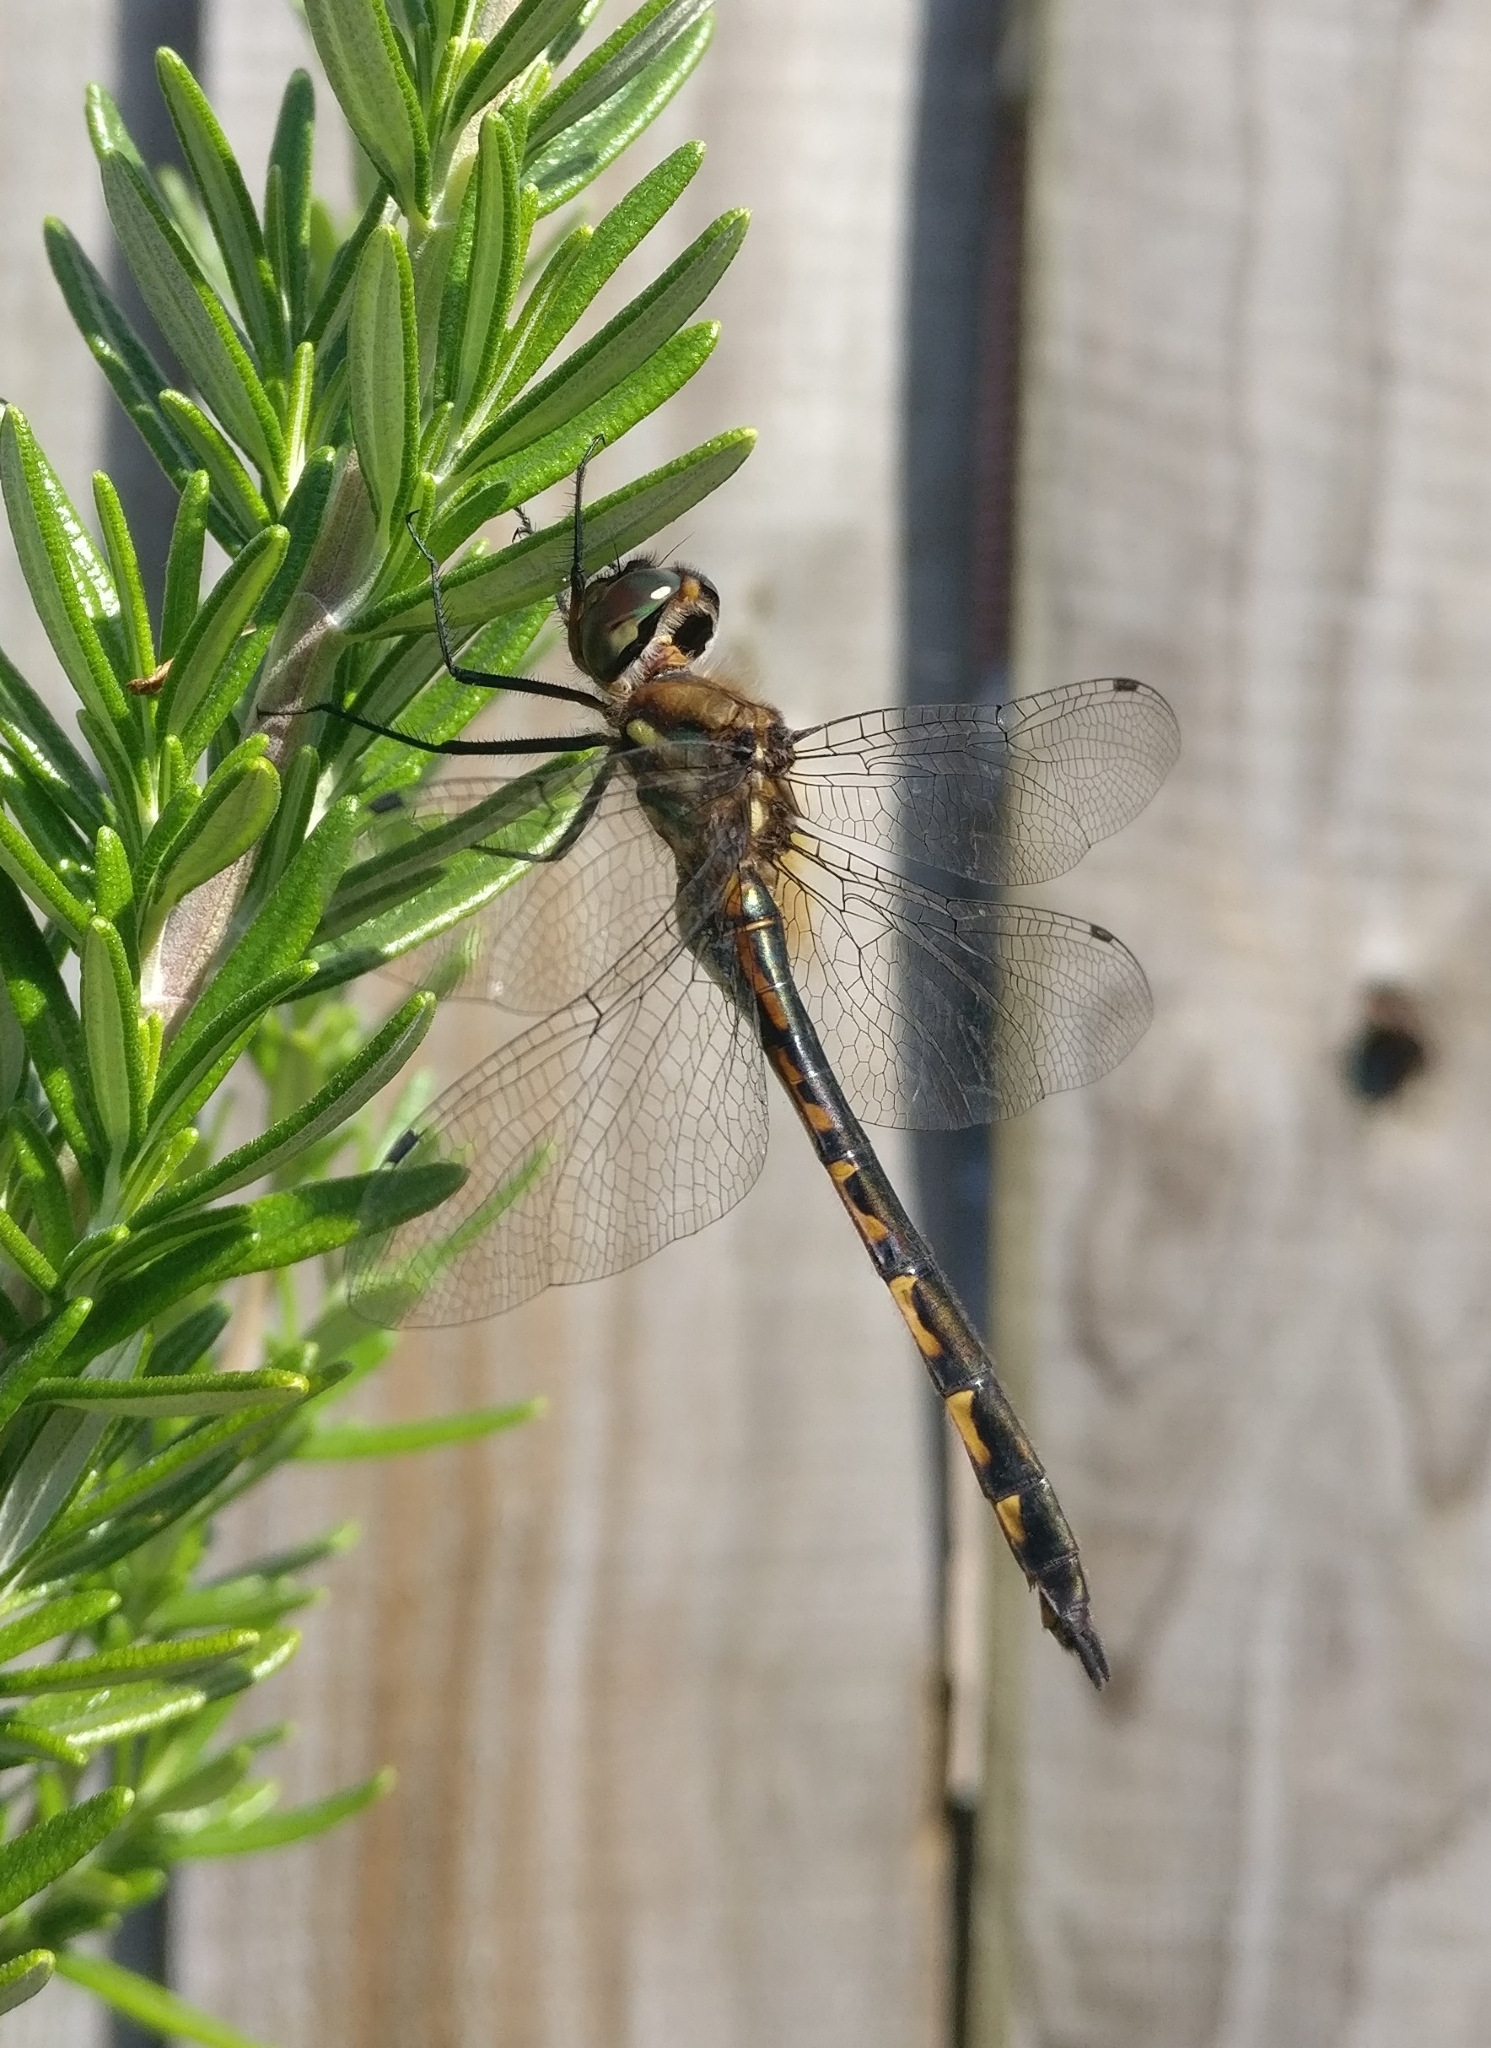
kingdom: Animalia
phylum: Arthropoda
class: Insecta
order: Odonata
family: Corduliidae
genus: Hemicordulia
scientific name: Hemicordulia armstrongi
